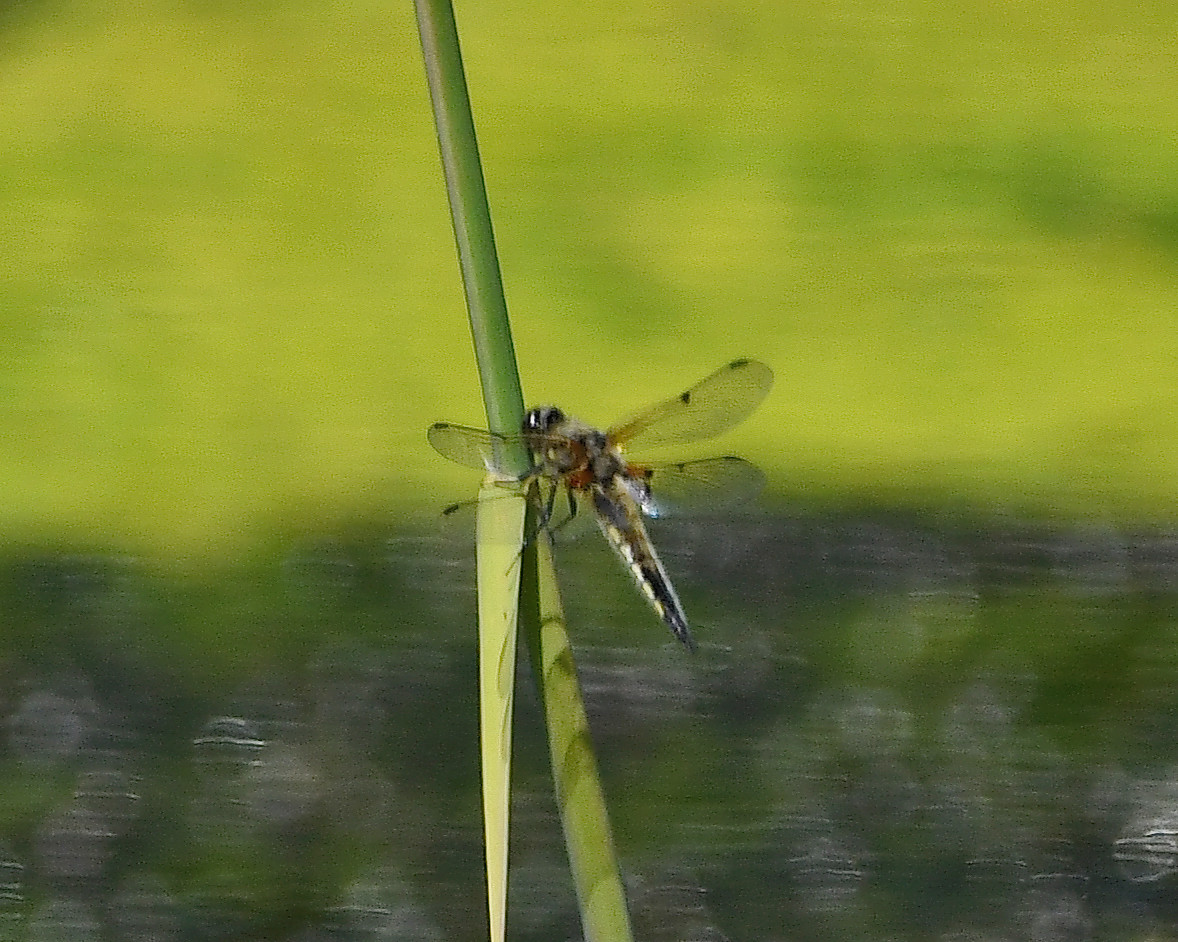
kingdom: Animalia
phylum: Arthropoda
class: Insecta
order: Odonata
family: Libellulidae
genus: Libellula
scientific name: Libellula quadrimaculata
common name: Four-spotted chaser
